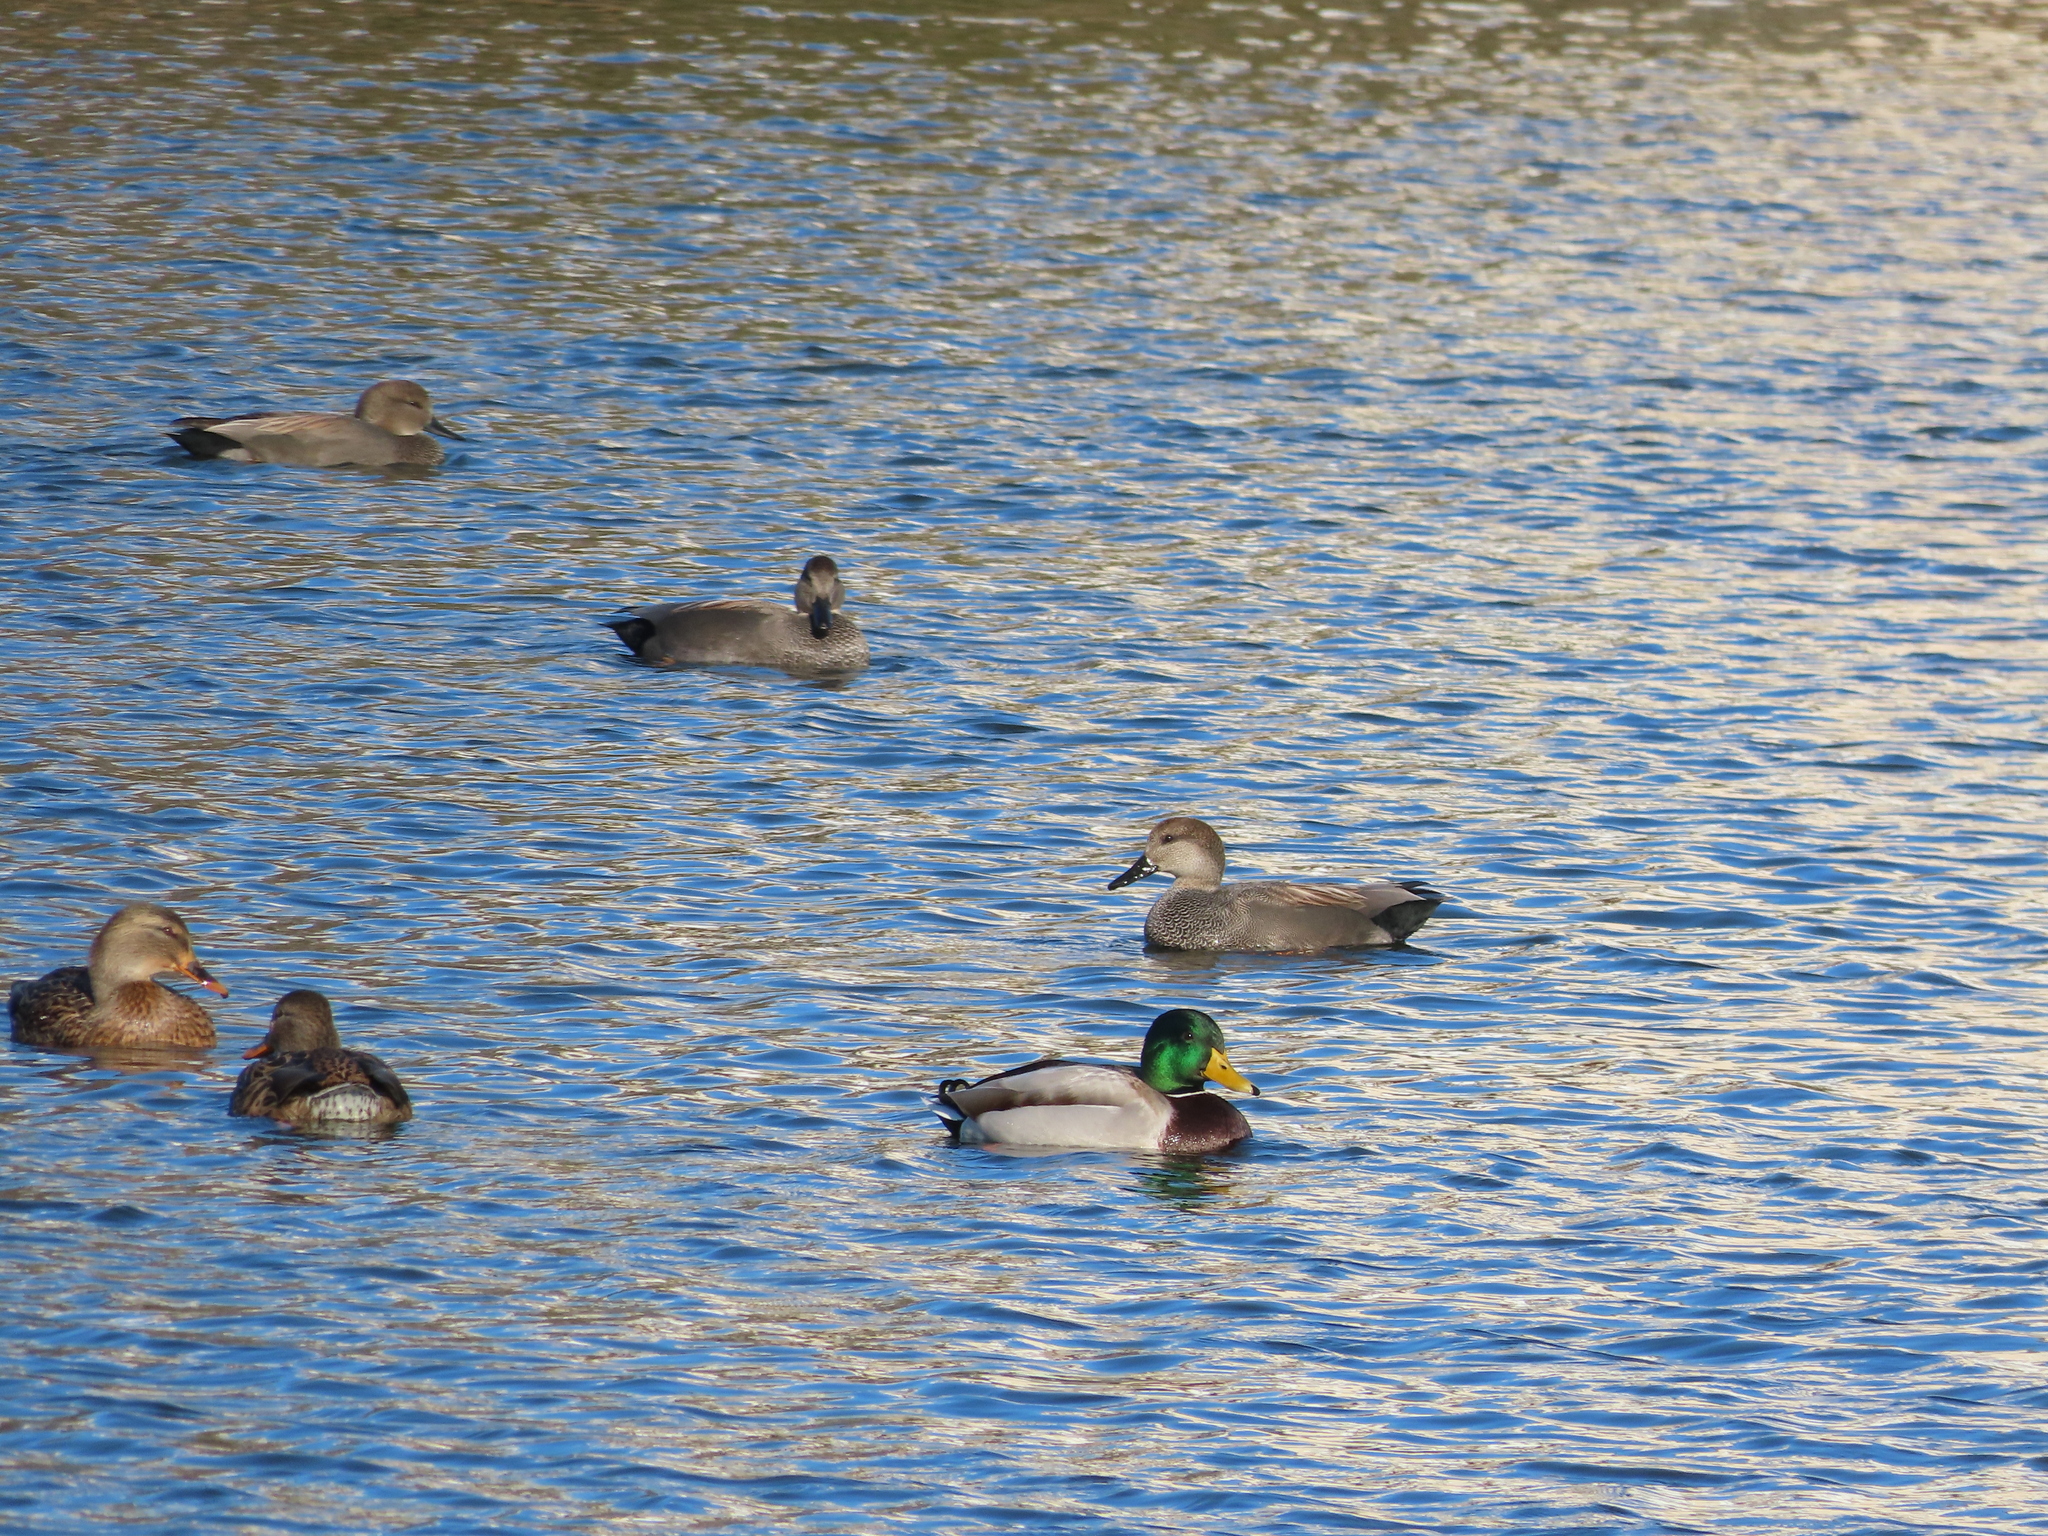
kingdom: Animalia
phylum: Chordata
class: Aves
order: Anseriformes
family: Anatidae
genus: Mareca
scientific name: Mareca strepera
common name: Gadwall
